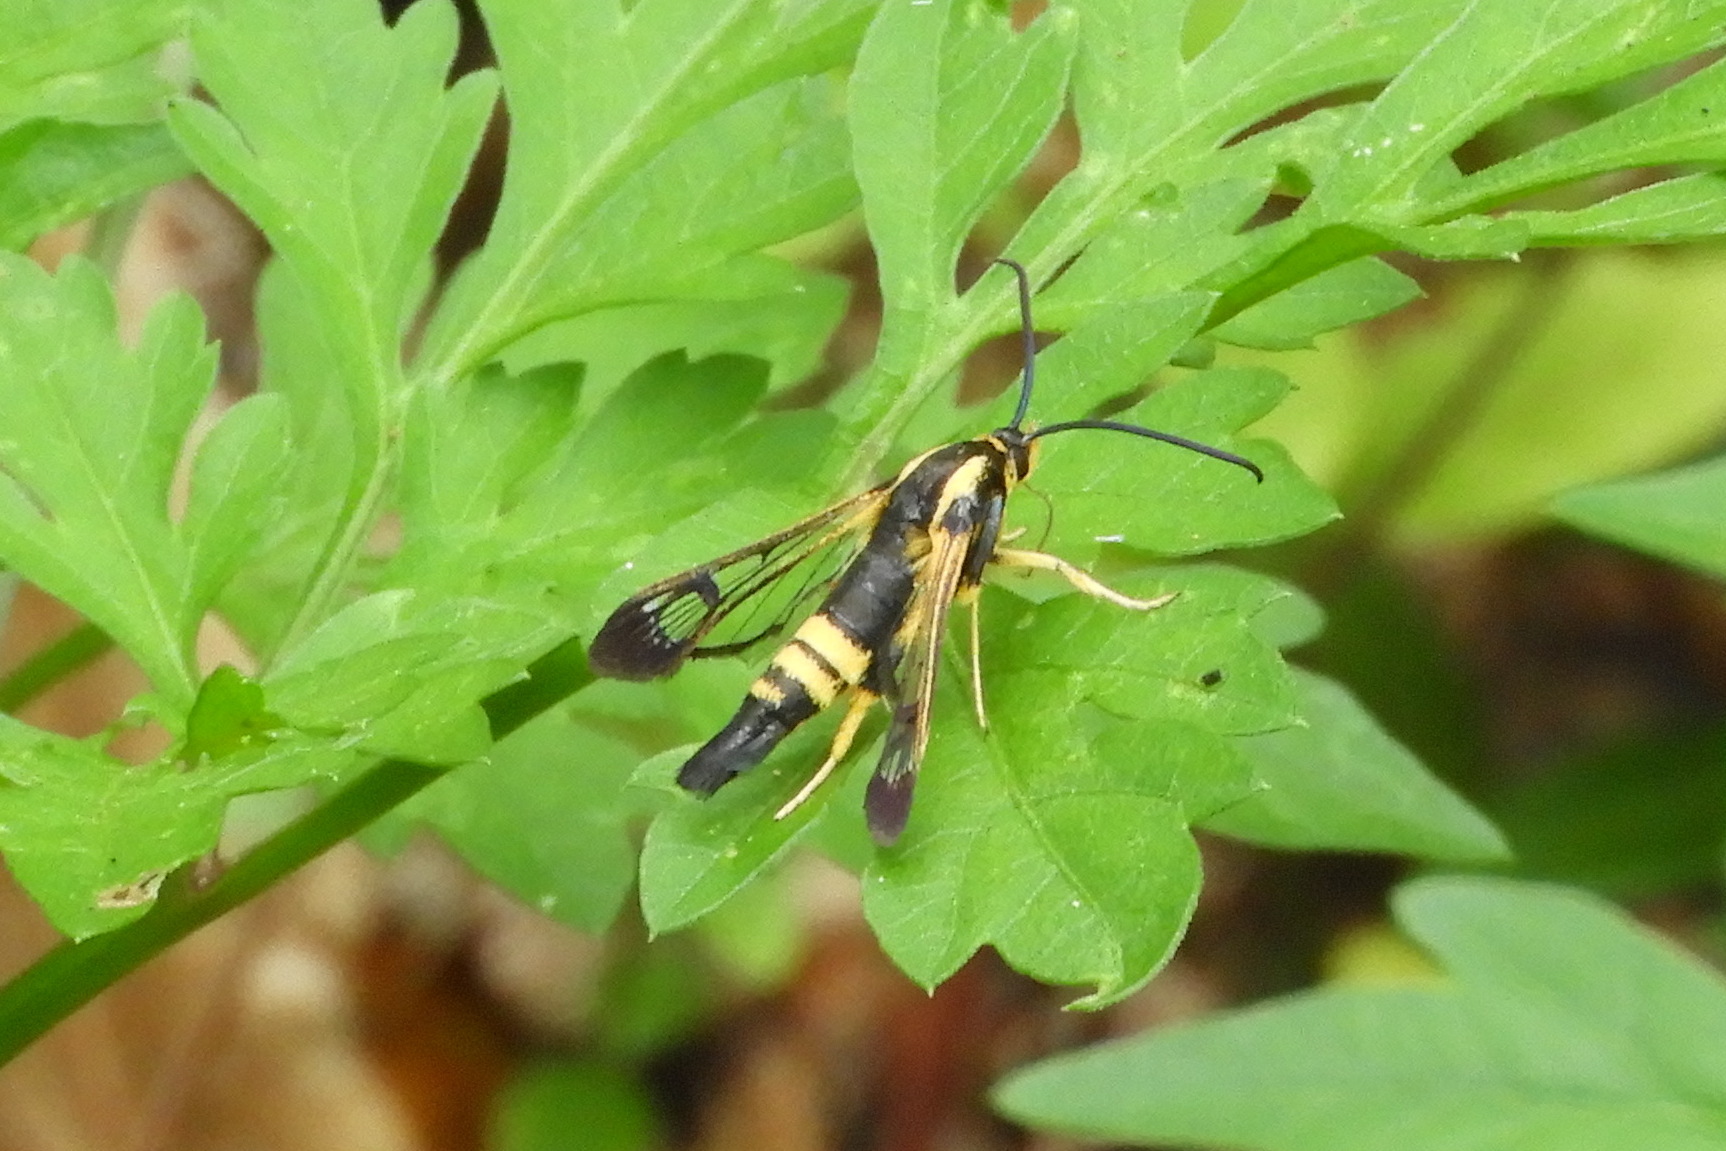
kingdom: Animalia
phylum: Arthropoda
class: Insecta
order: Lepidoptera
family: Sesiidae
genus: Synanthedon
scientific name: Synanthedon kathyae
